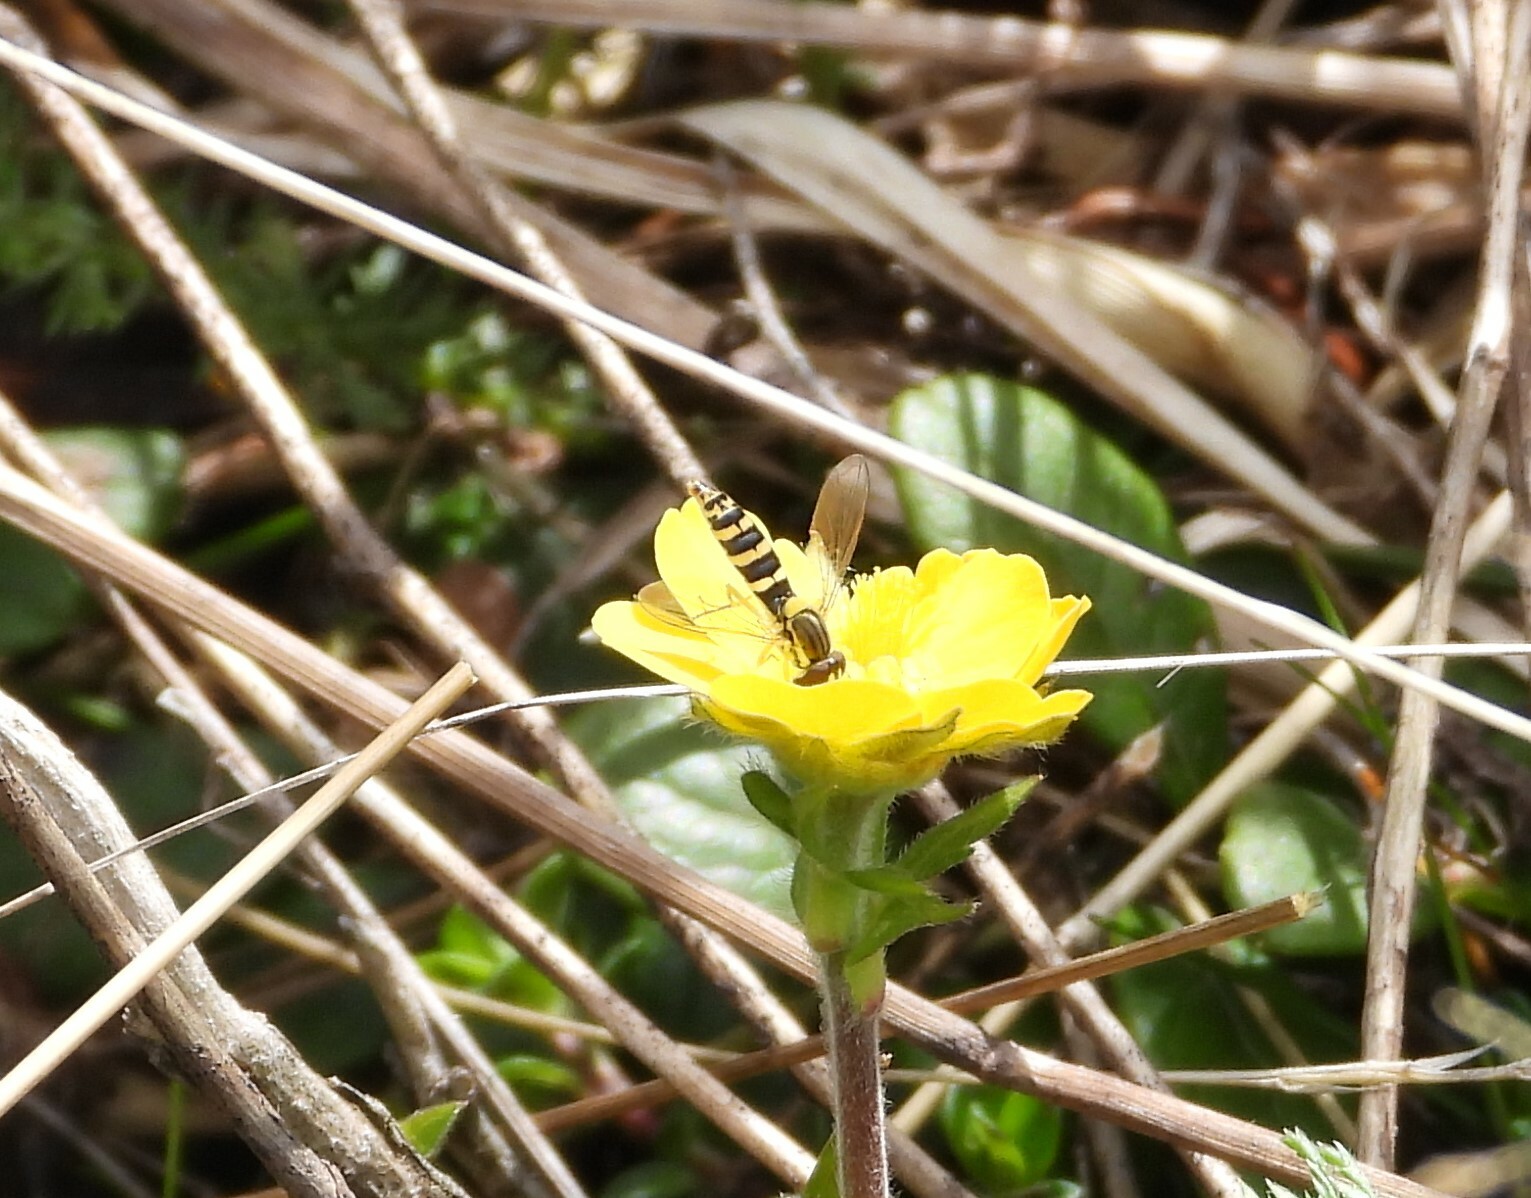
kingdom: Animalia
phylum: Arthropoda
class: Insecta
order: Diptera
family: Syrphidae
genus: Sphaerophoria
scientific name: Sphaerophoria
